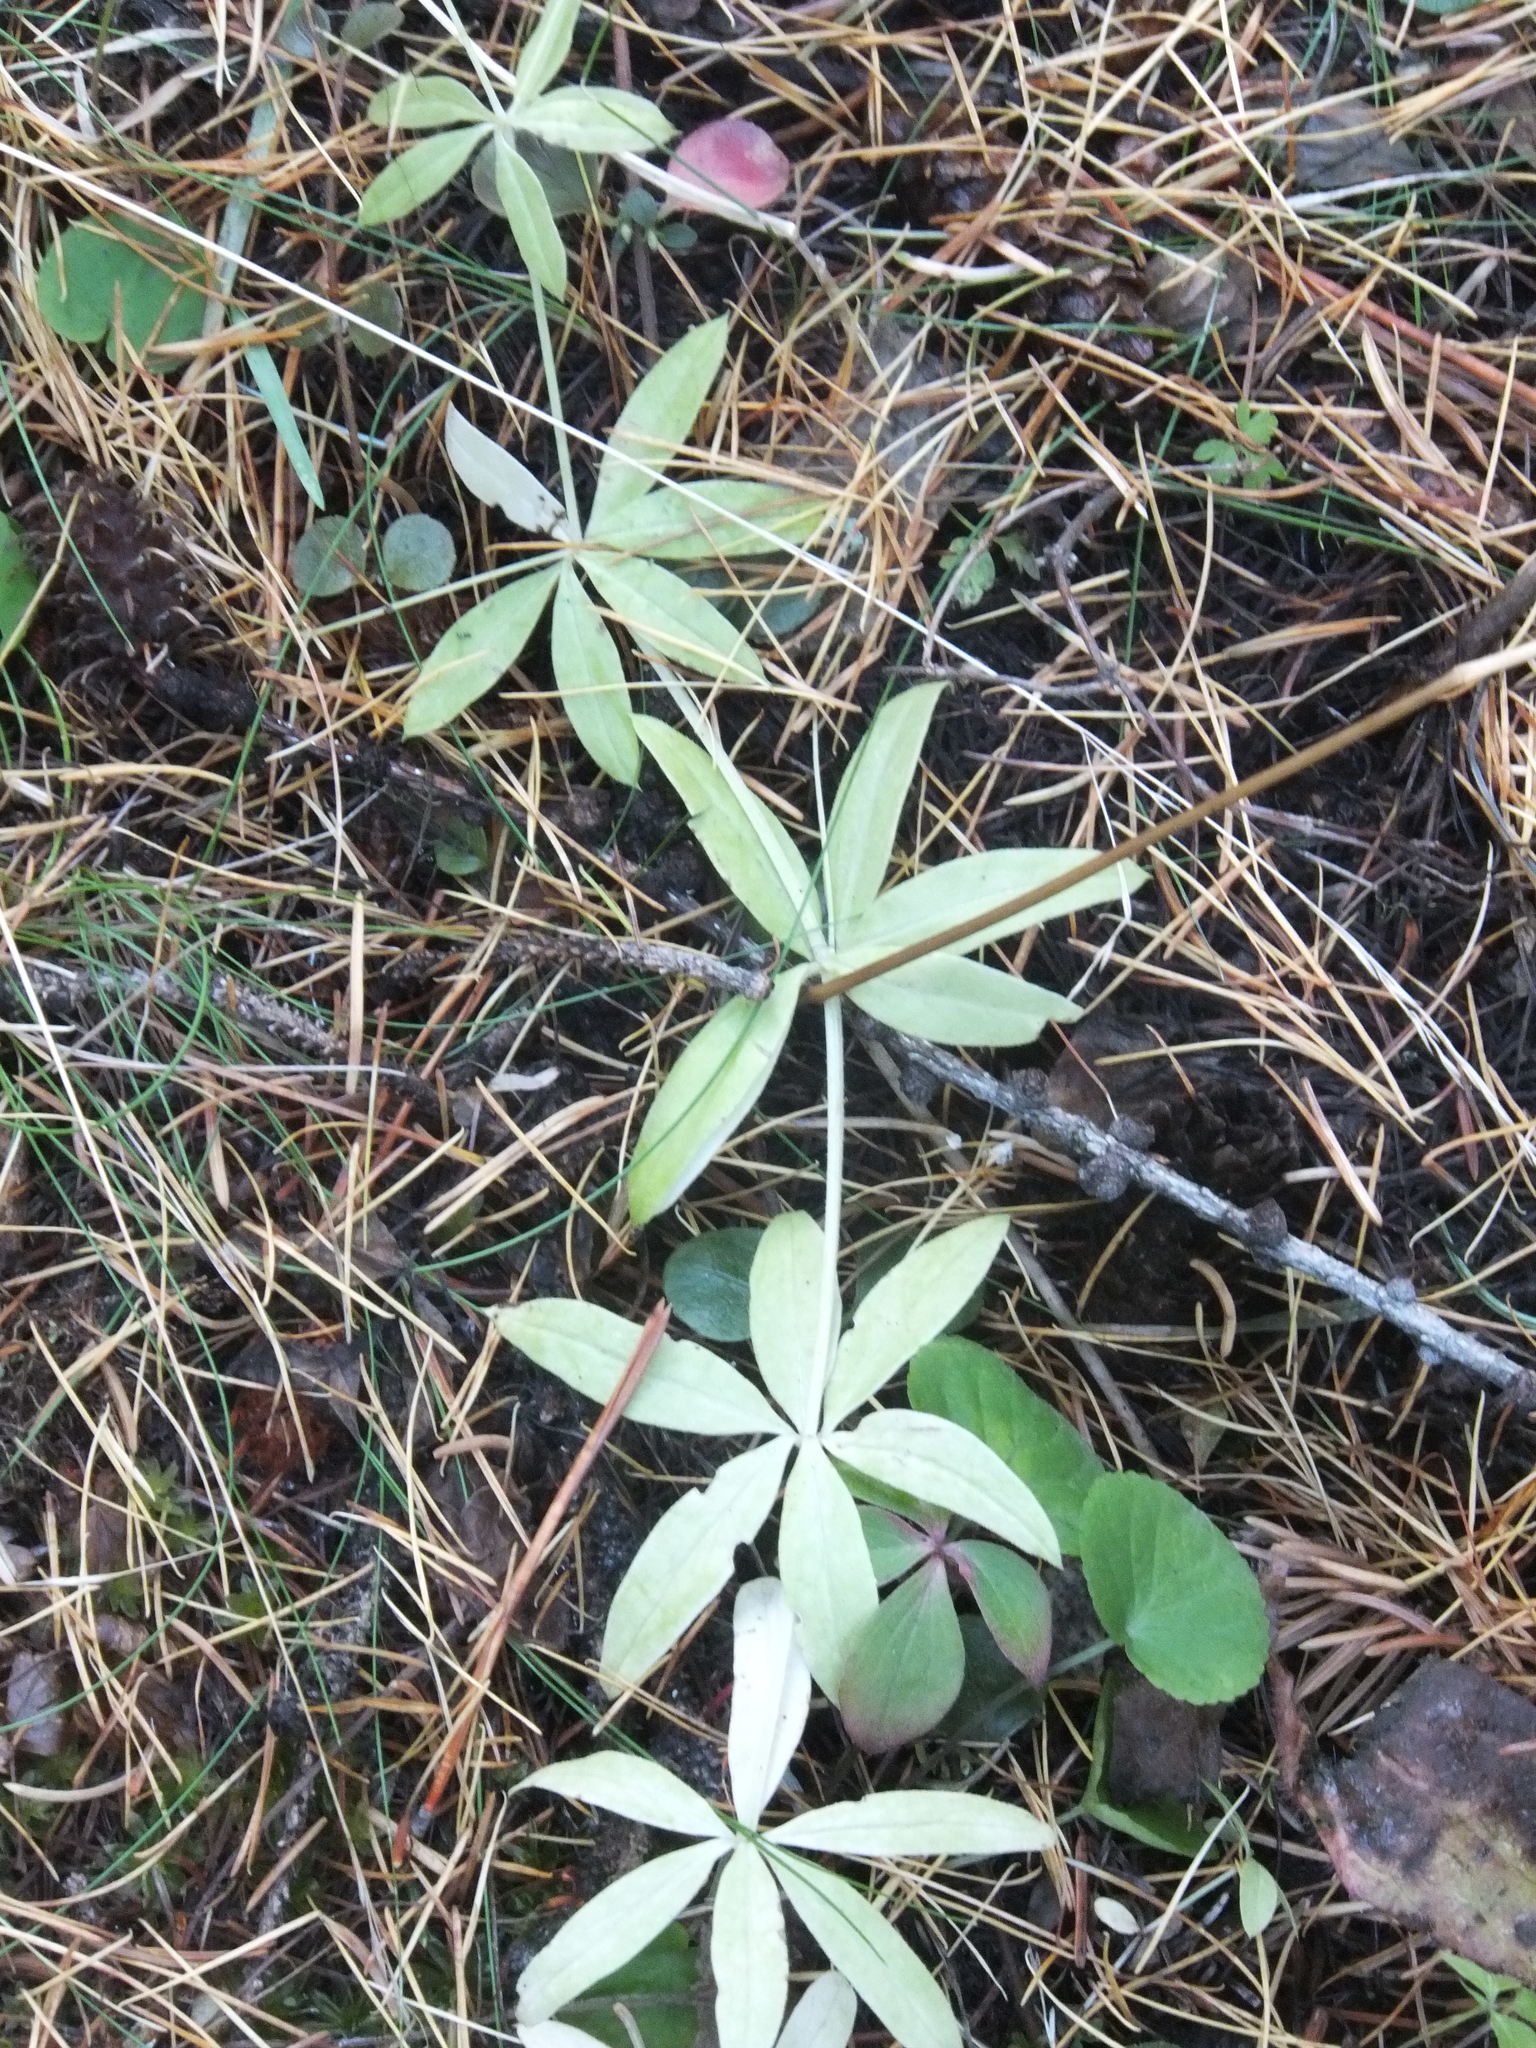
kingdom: Plantae
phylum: Tracheophyta
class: Magnoliopsida
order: Gentianales
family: Rubiaceae
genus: Galium
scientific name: Galium triflorum
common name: Fragrant bedstraw
